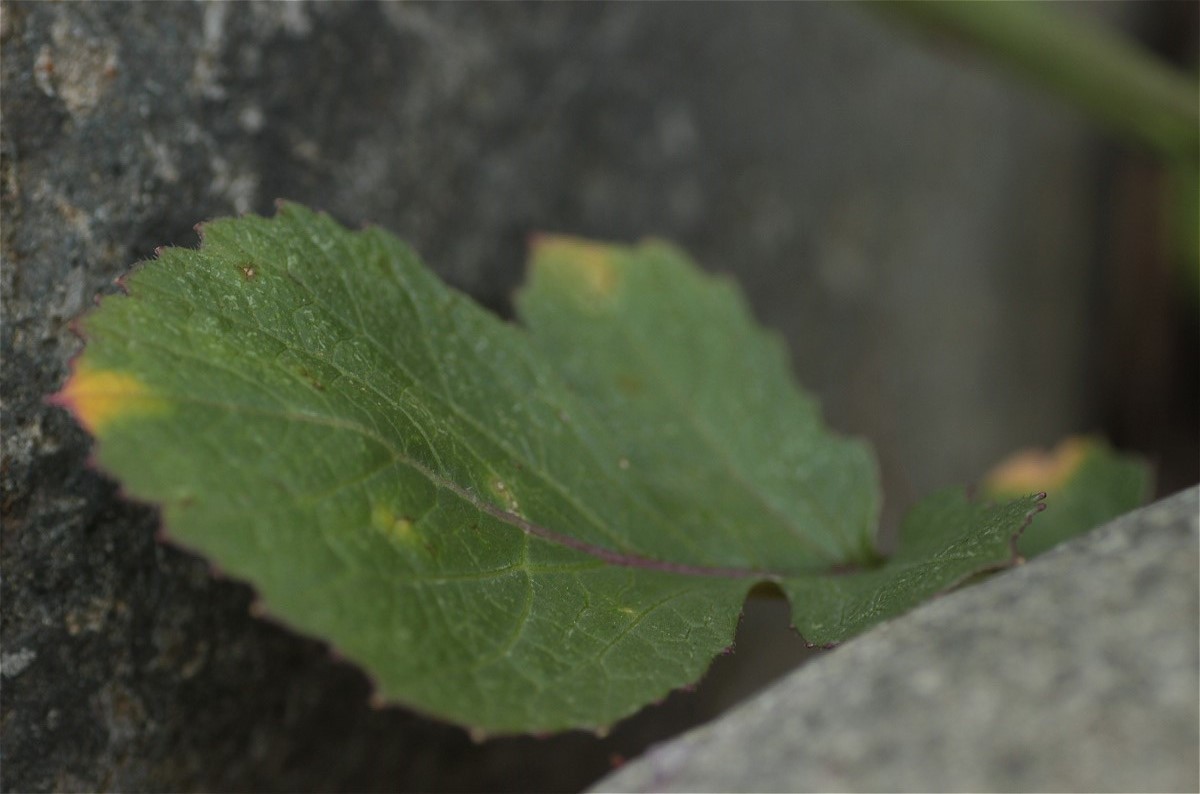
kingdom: Plantae
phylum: Tracheophyta
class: Magnoliopsida
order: Brassicales
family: Brassicaceae
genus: Raphanus
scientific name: Raphanus sativus
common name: Cultivated radish
